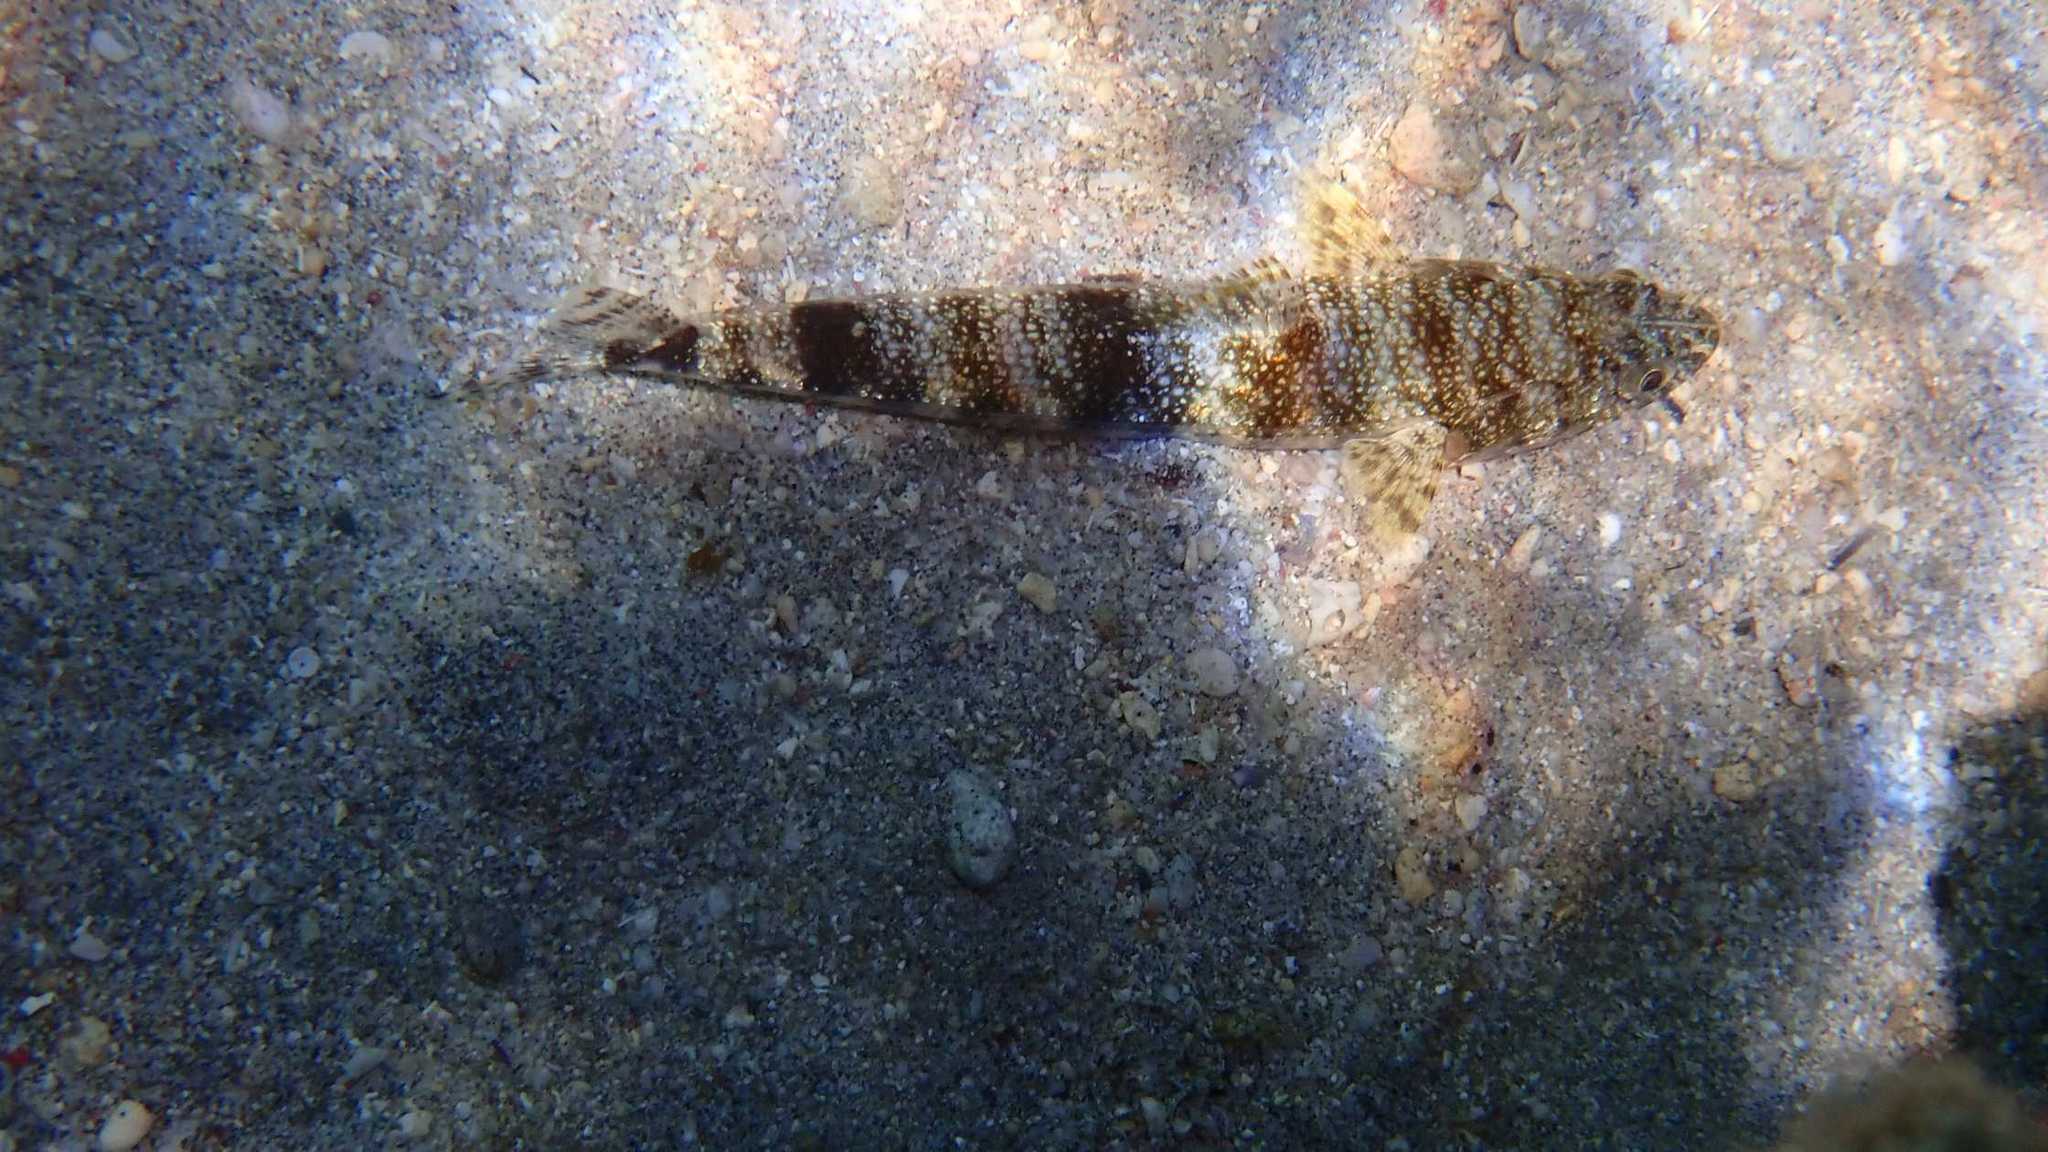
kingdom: Animalia
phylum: Chordata
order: Aulopiformes
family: Synodontidae
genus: Saurida
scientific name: Saurida gracilis
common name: Slender lizardfish
